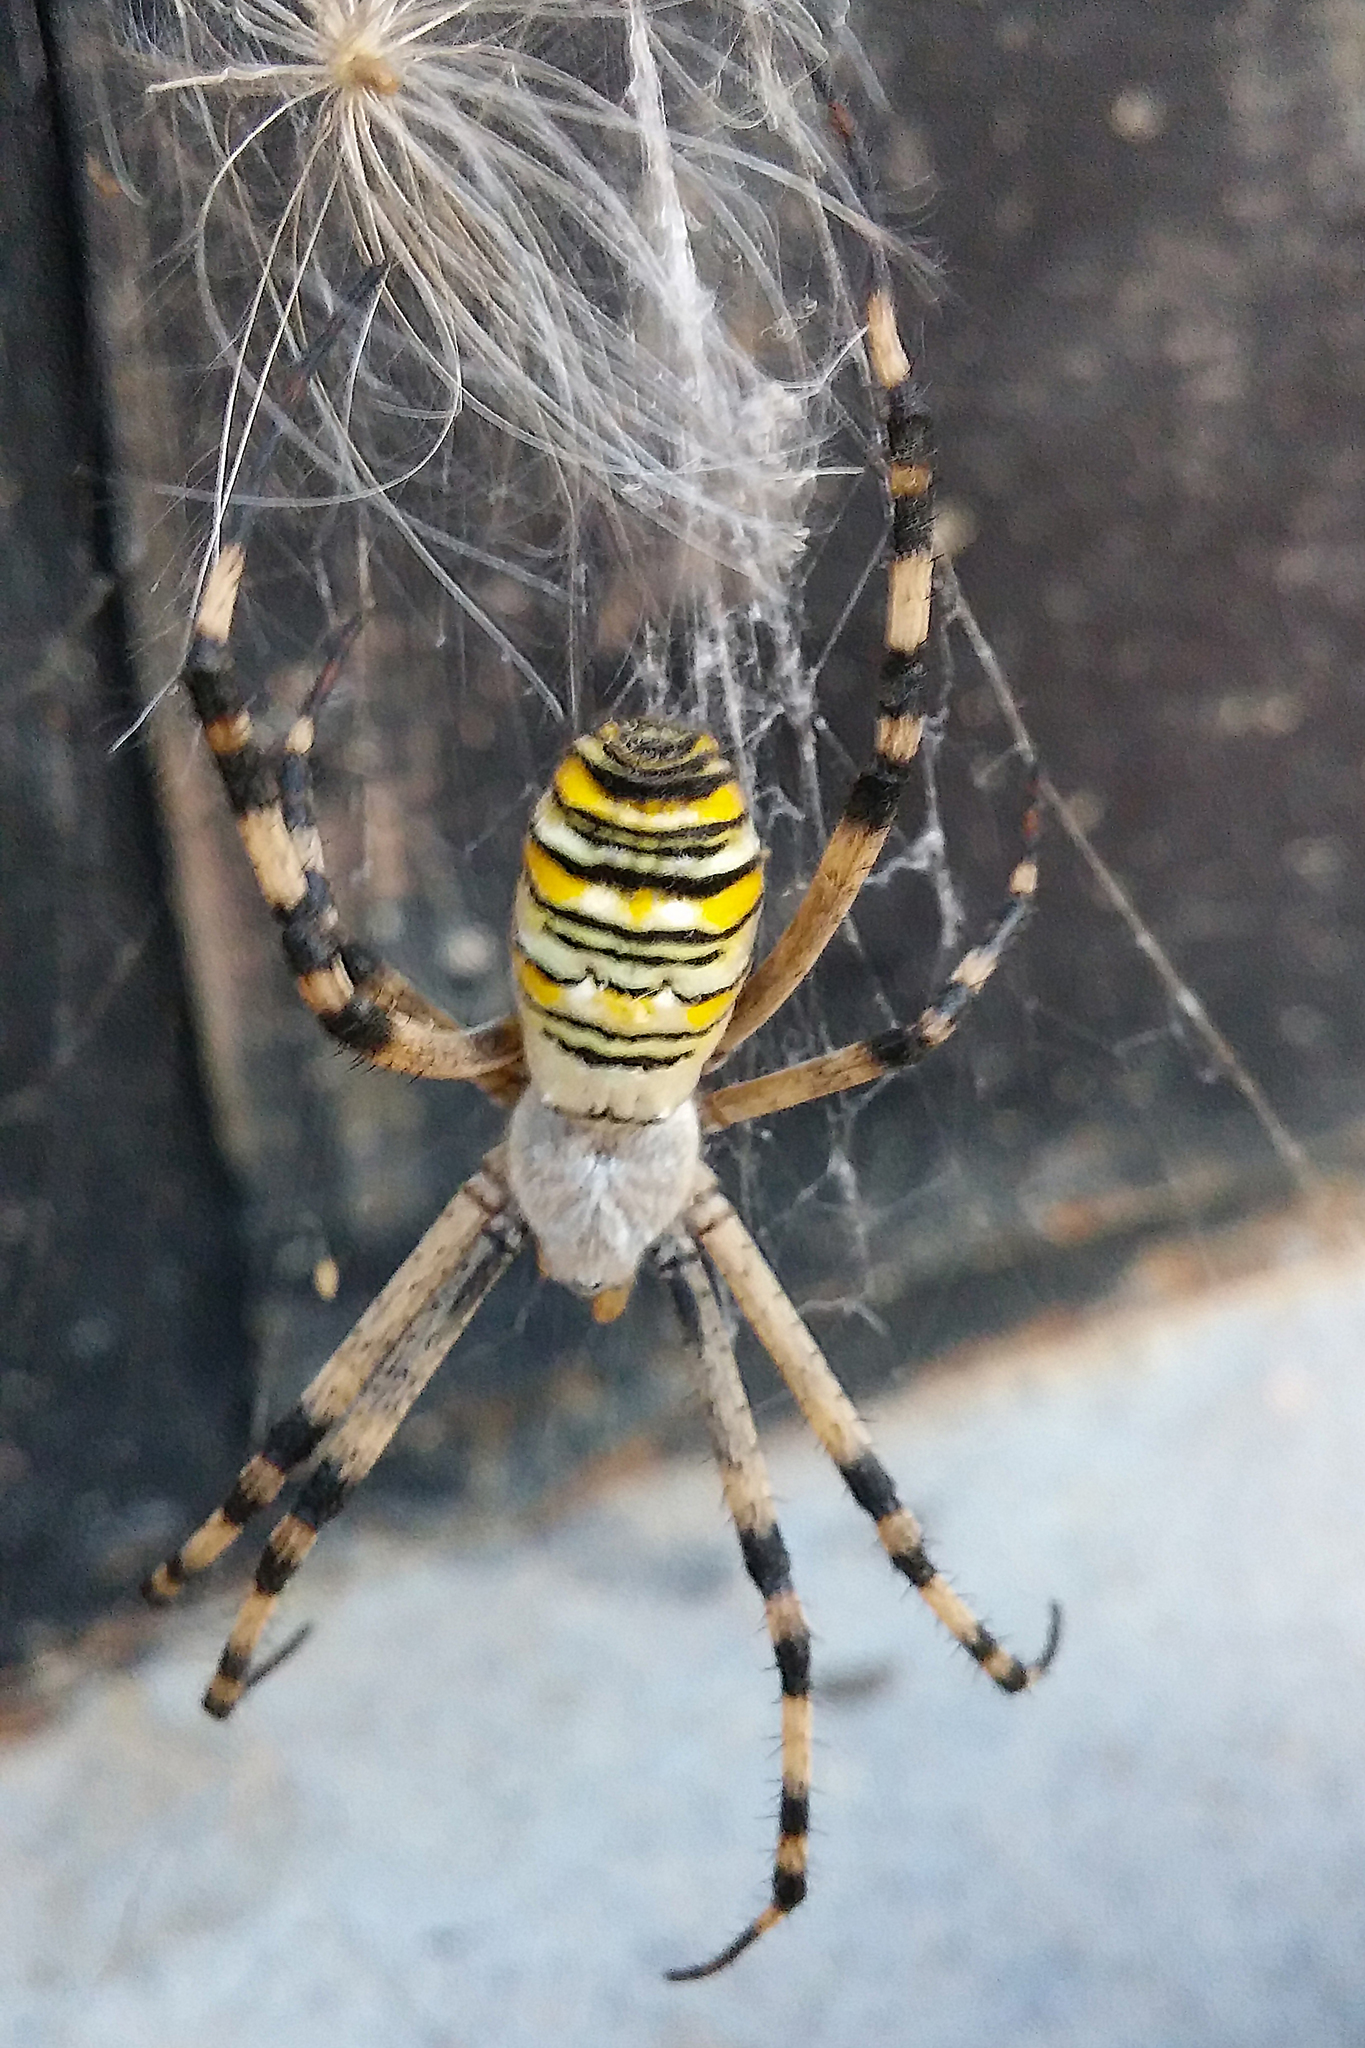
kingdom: Animalia
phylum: Arthropoda
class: Arachnida
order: Araneae
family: Araneidae
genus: Argiope
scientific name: Argiope bruennichi
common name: Wasp spider
